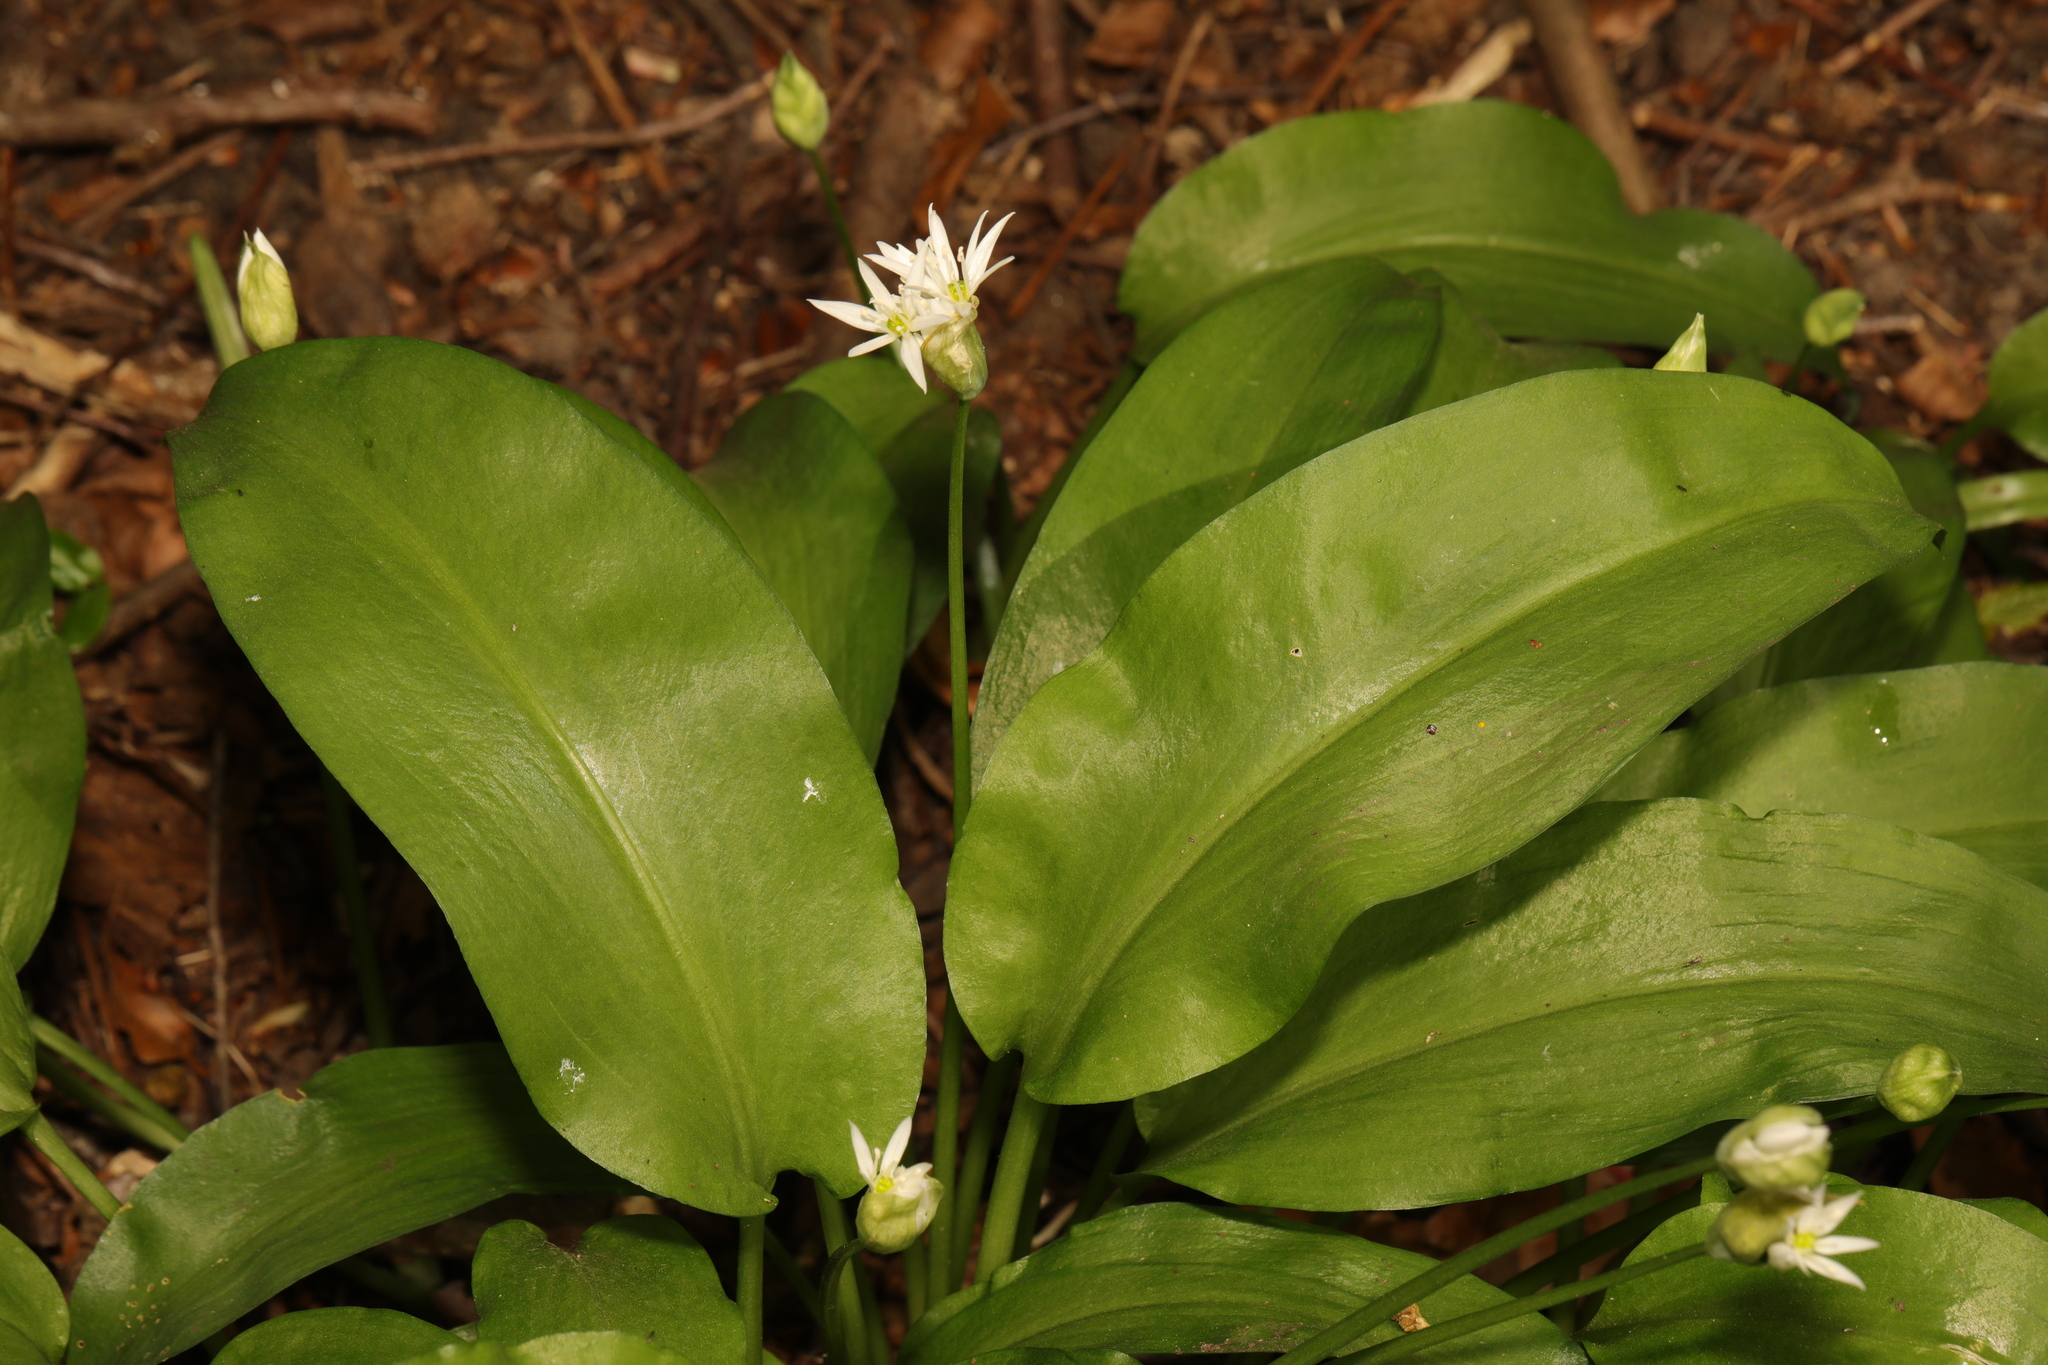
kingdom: Plantae
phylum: Tracheophyta
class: Liliopsida
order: Asparagales
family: Amaryllidaceae
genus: Allium
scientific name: Allium ursinum
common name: Ramsons
